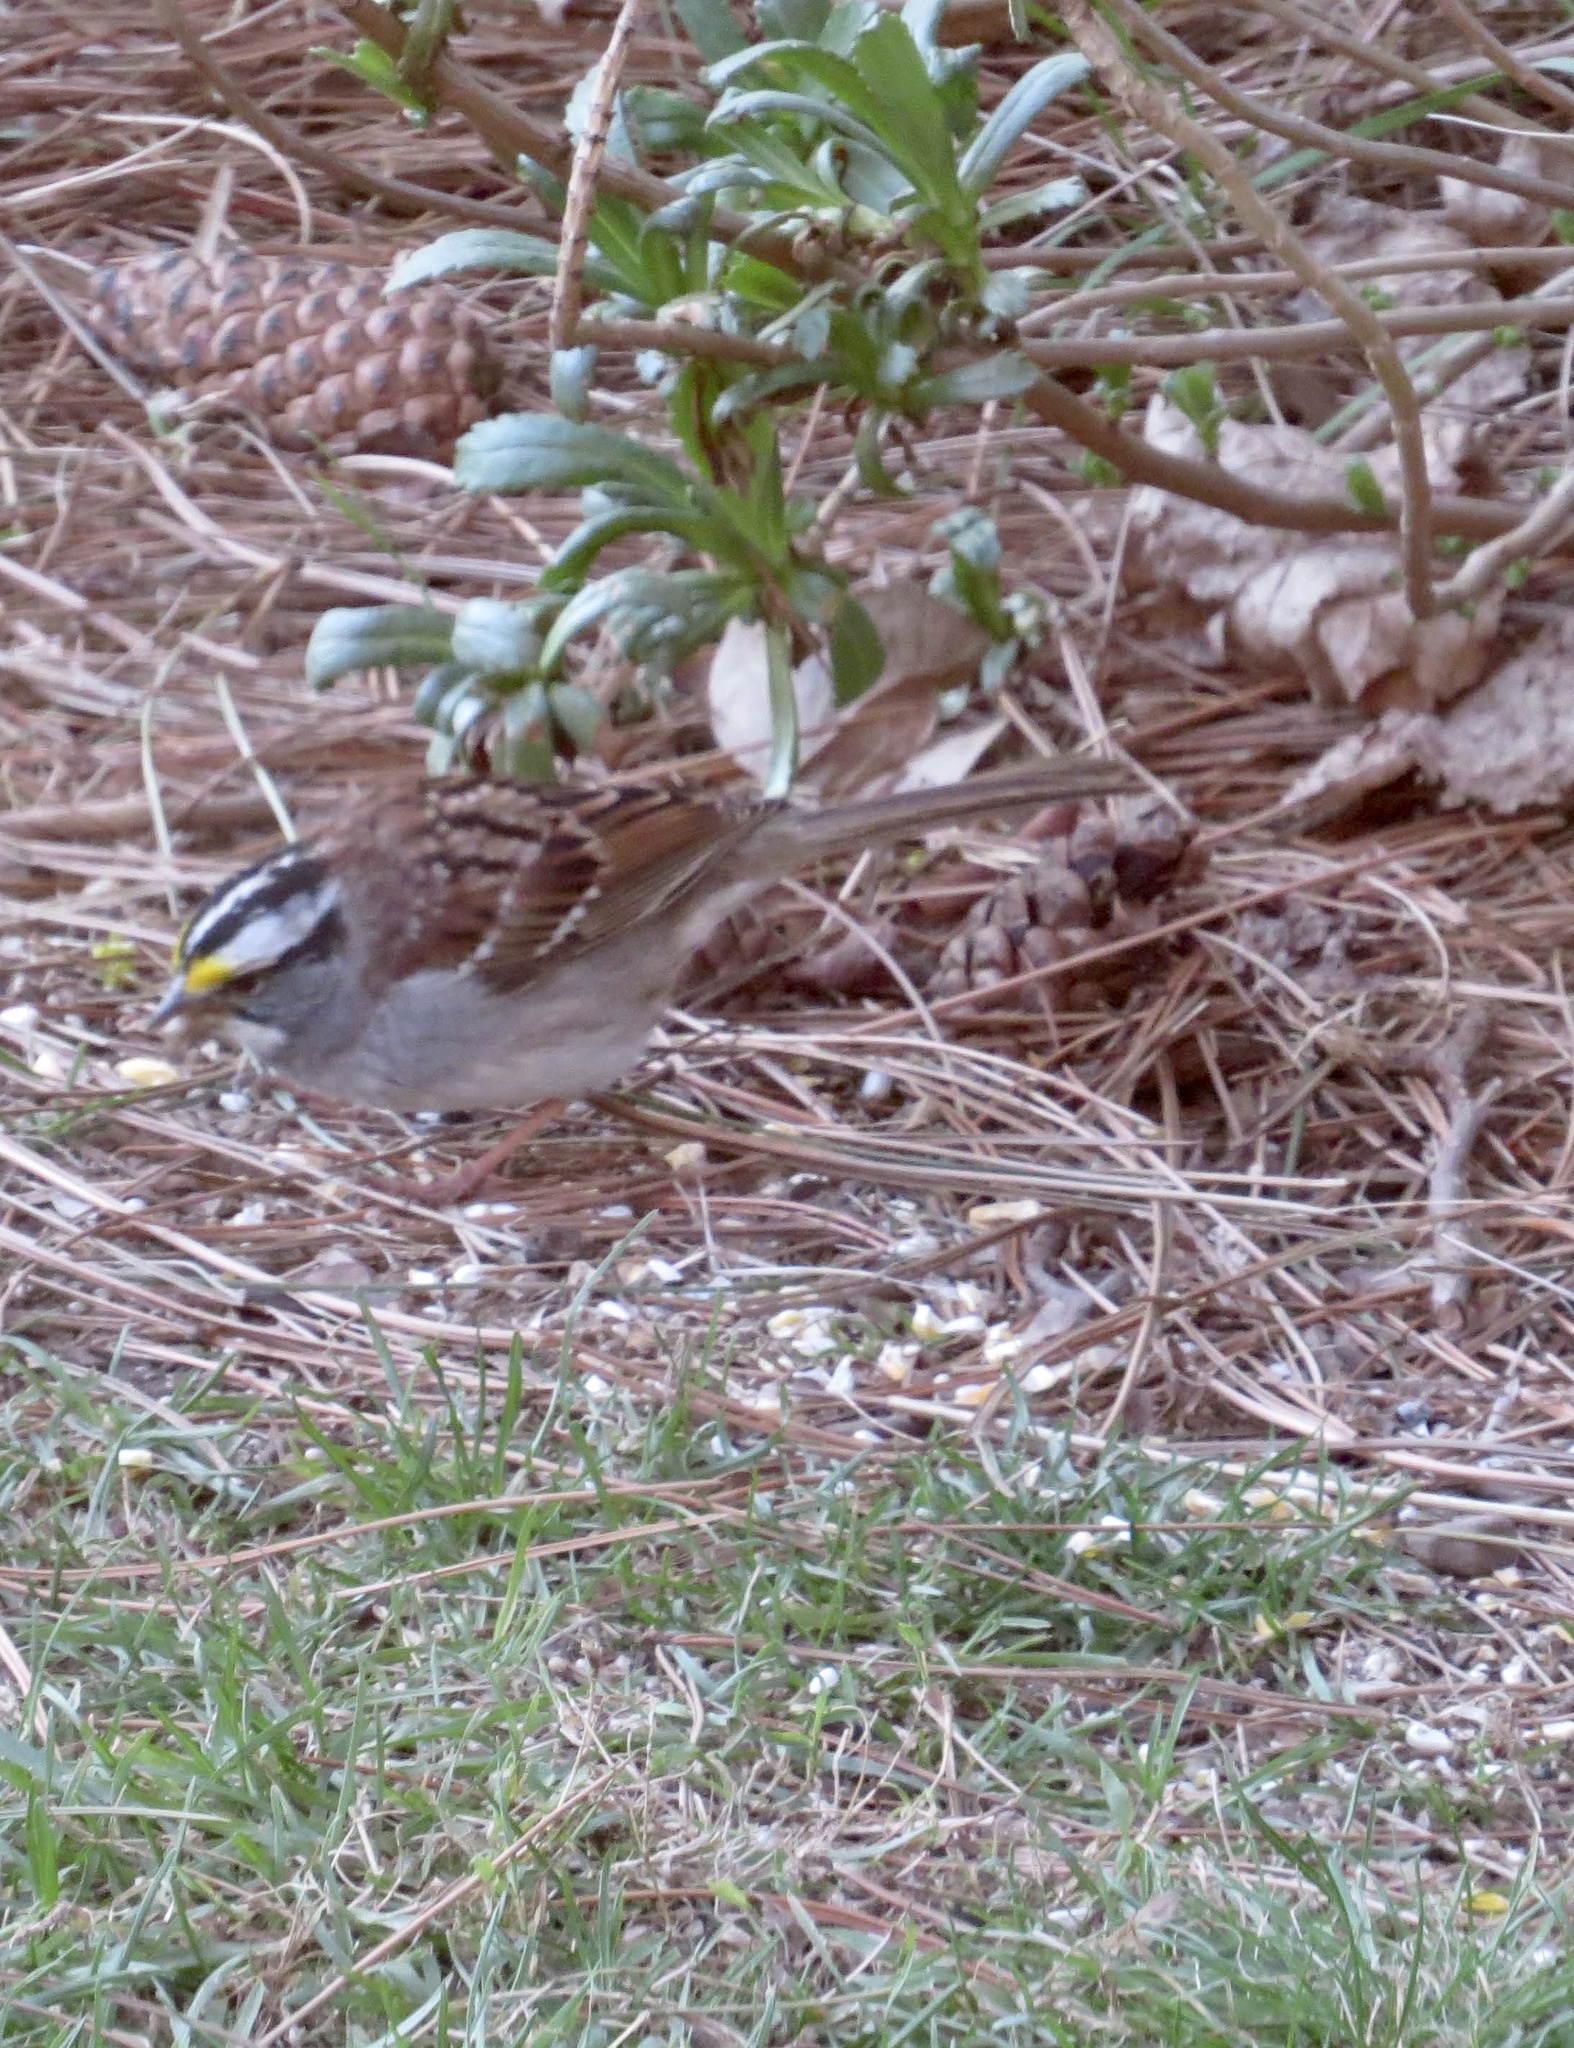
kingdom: Animalia
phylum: Chordata
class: Aves
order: Passeriformes
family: Passerellidae
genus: Zonotrichia
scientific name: Zonotrichia albicollis
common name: White-throated sparrow
